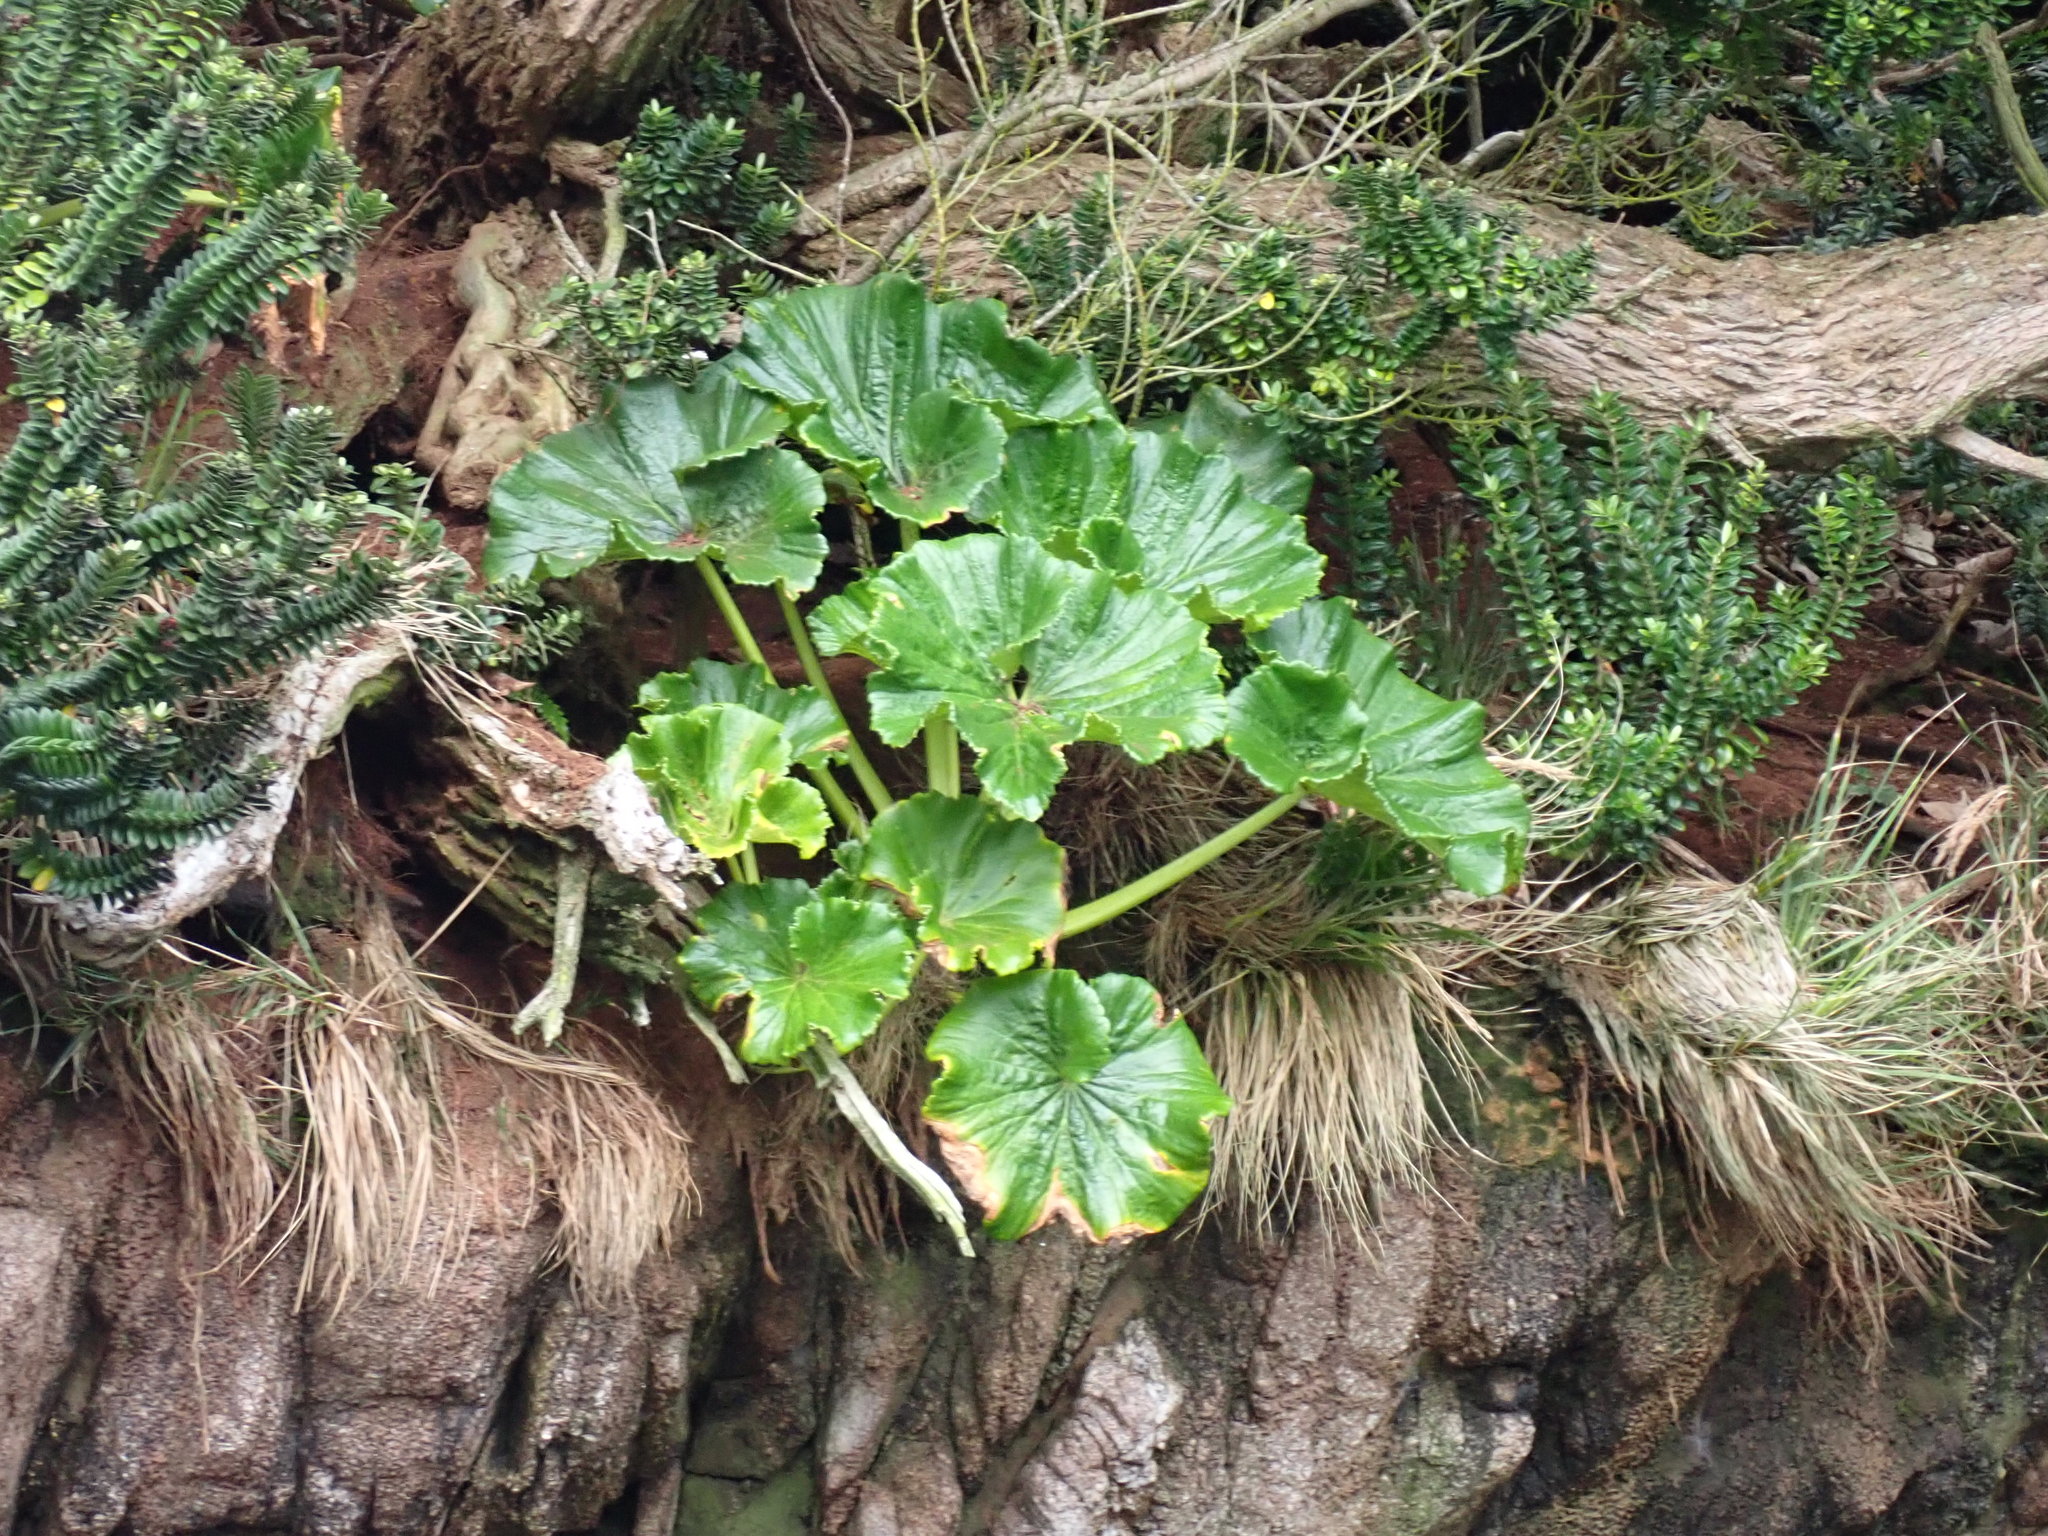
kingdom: Plantae
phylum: Tracheophyta
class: Magnoliopsida
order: Apiales
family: Apiaceae
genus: Azorella
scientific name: Azorella robusta
